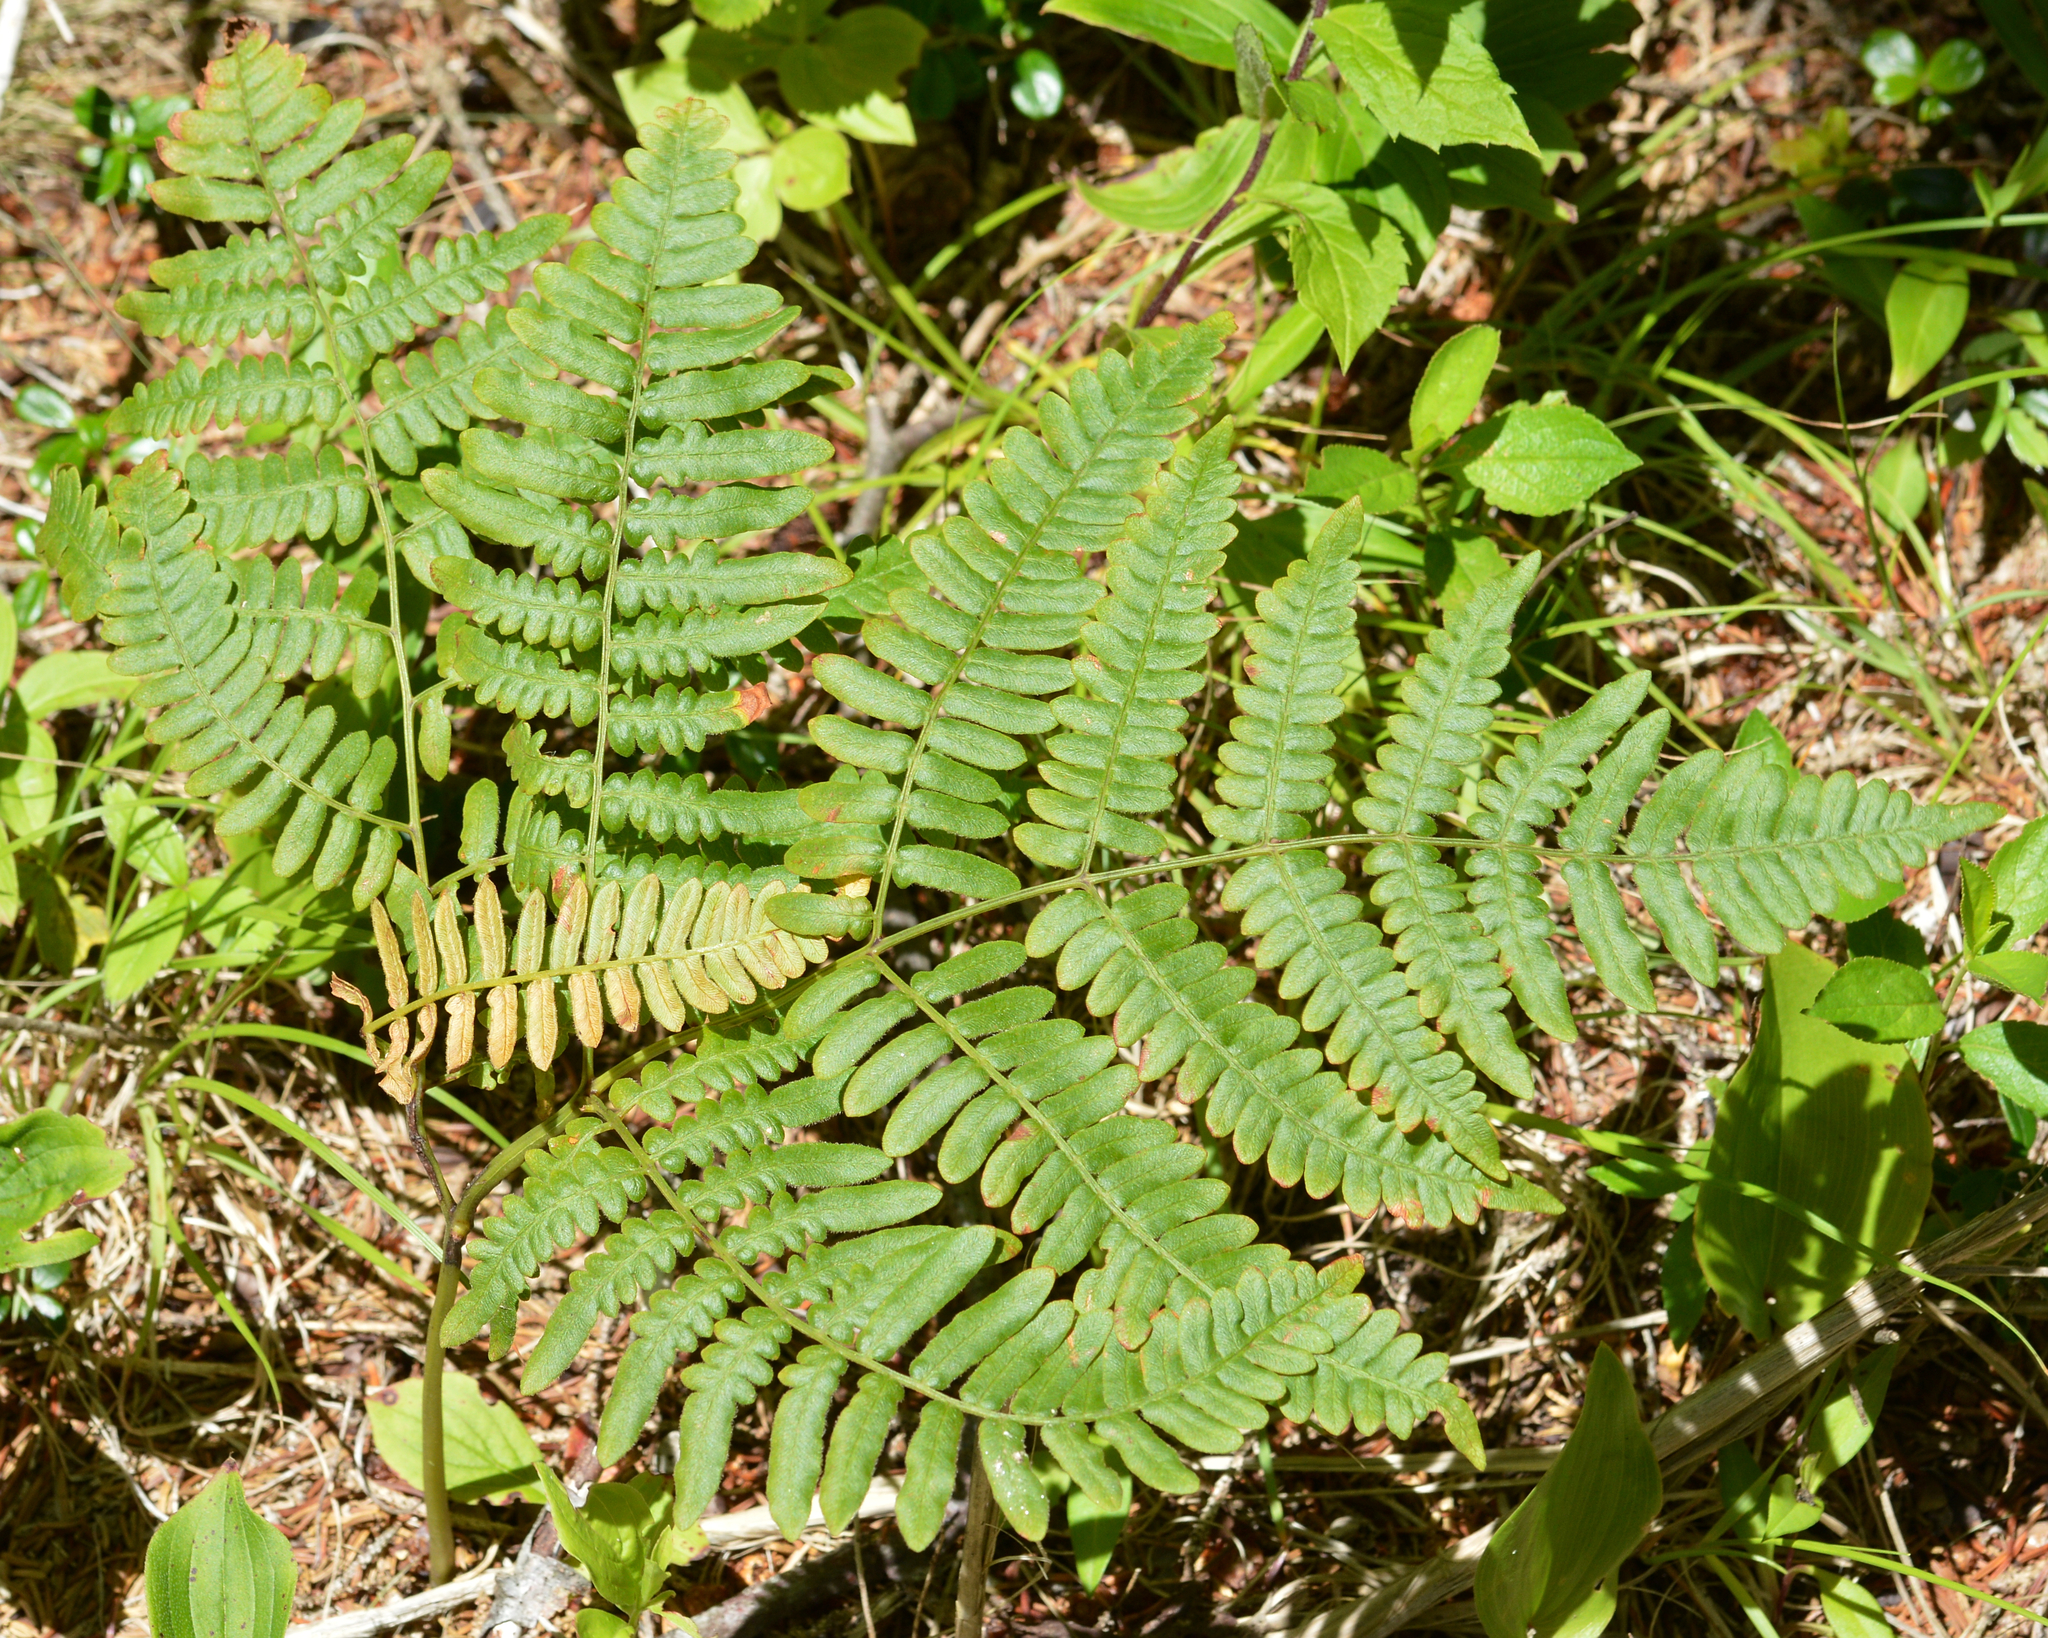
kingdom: Plantae
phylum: Tracheophyta
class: Polypodiopsida
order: Polypodiales
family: Dennstaedtiaceae
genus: Pteridium
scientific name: Pteridium aquilinum
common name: Bracken
